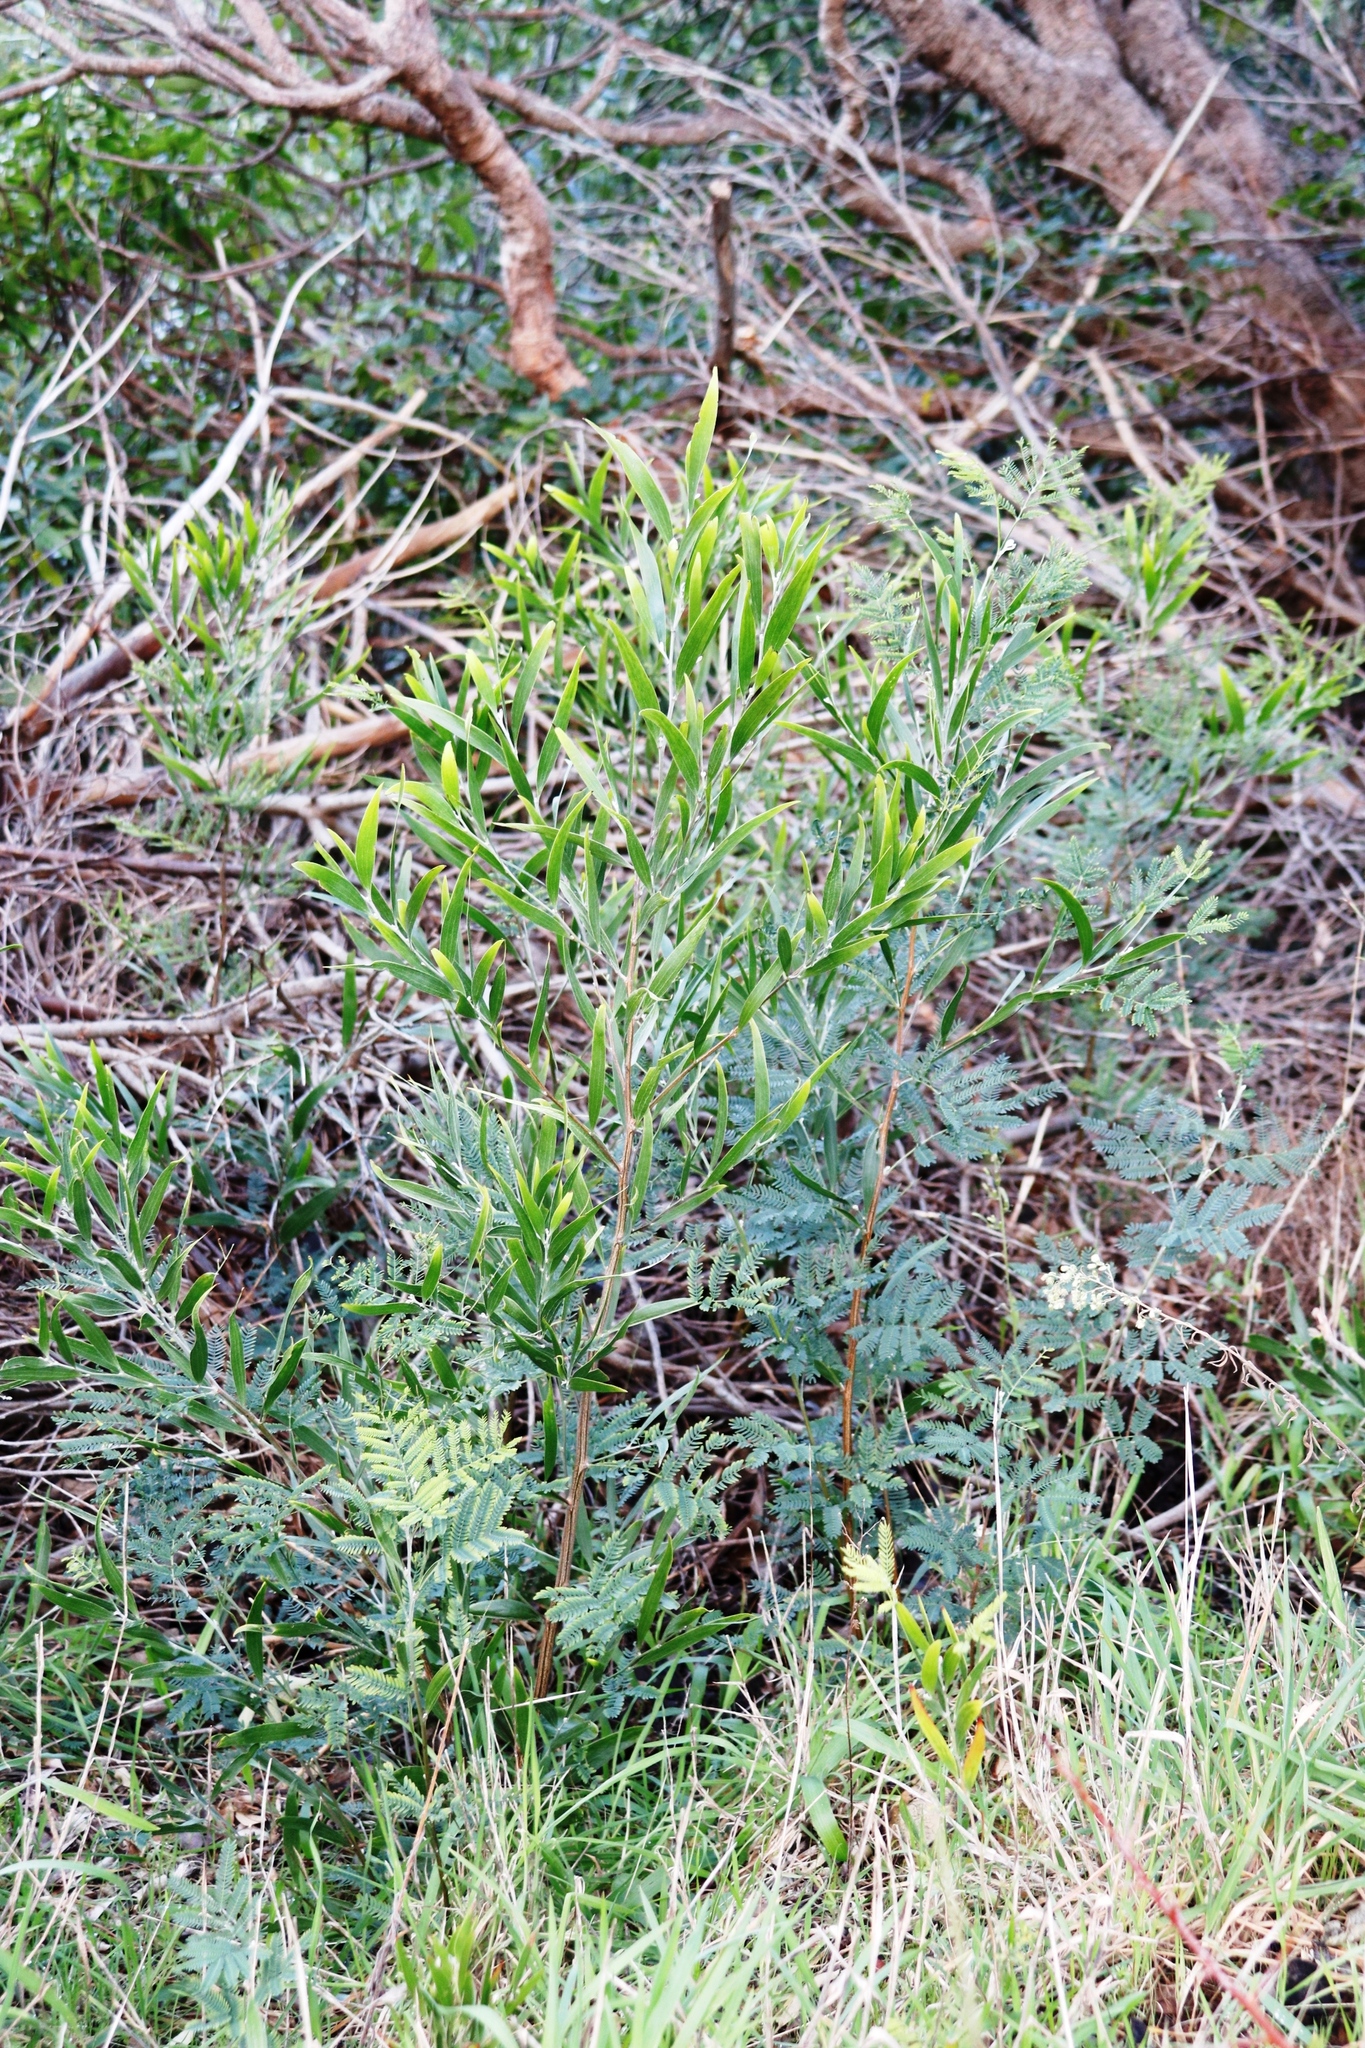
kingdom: Plantae
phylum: Tracheophyta
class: Magnoliopsida
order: Fabales
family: Fabaceae
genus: Acacia
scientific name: Acacia longifolia
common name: Sydney golden wattle
